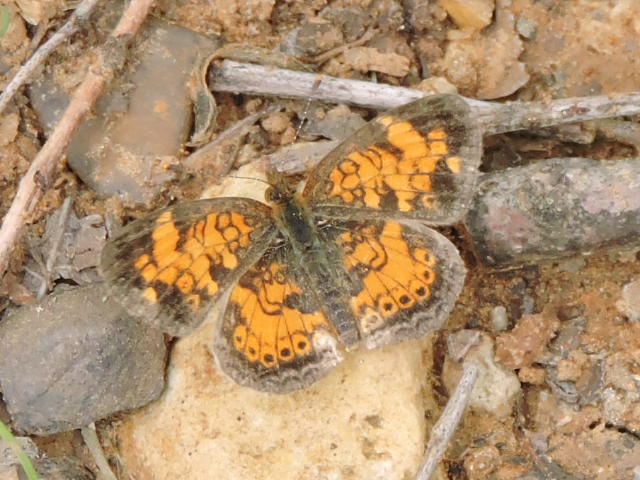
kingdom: Animalia
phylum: Arthropoda
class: Insecta
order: Lepidoptera
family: Nymphalidae
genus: Phyciodes
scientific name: Phyciodes tharos
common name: Pearl crescent
